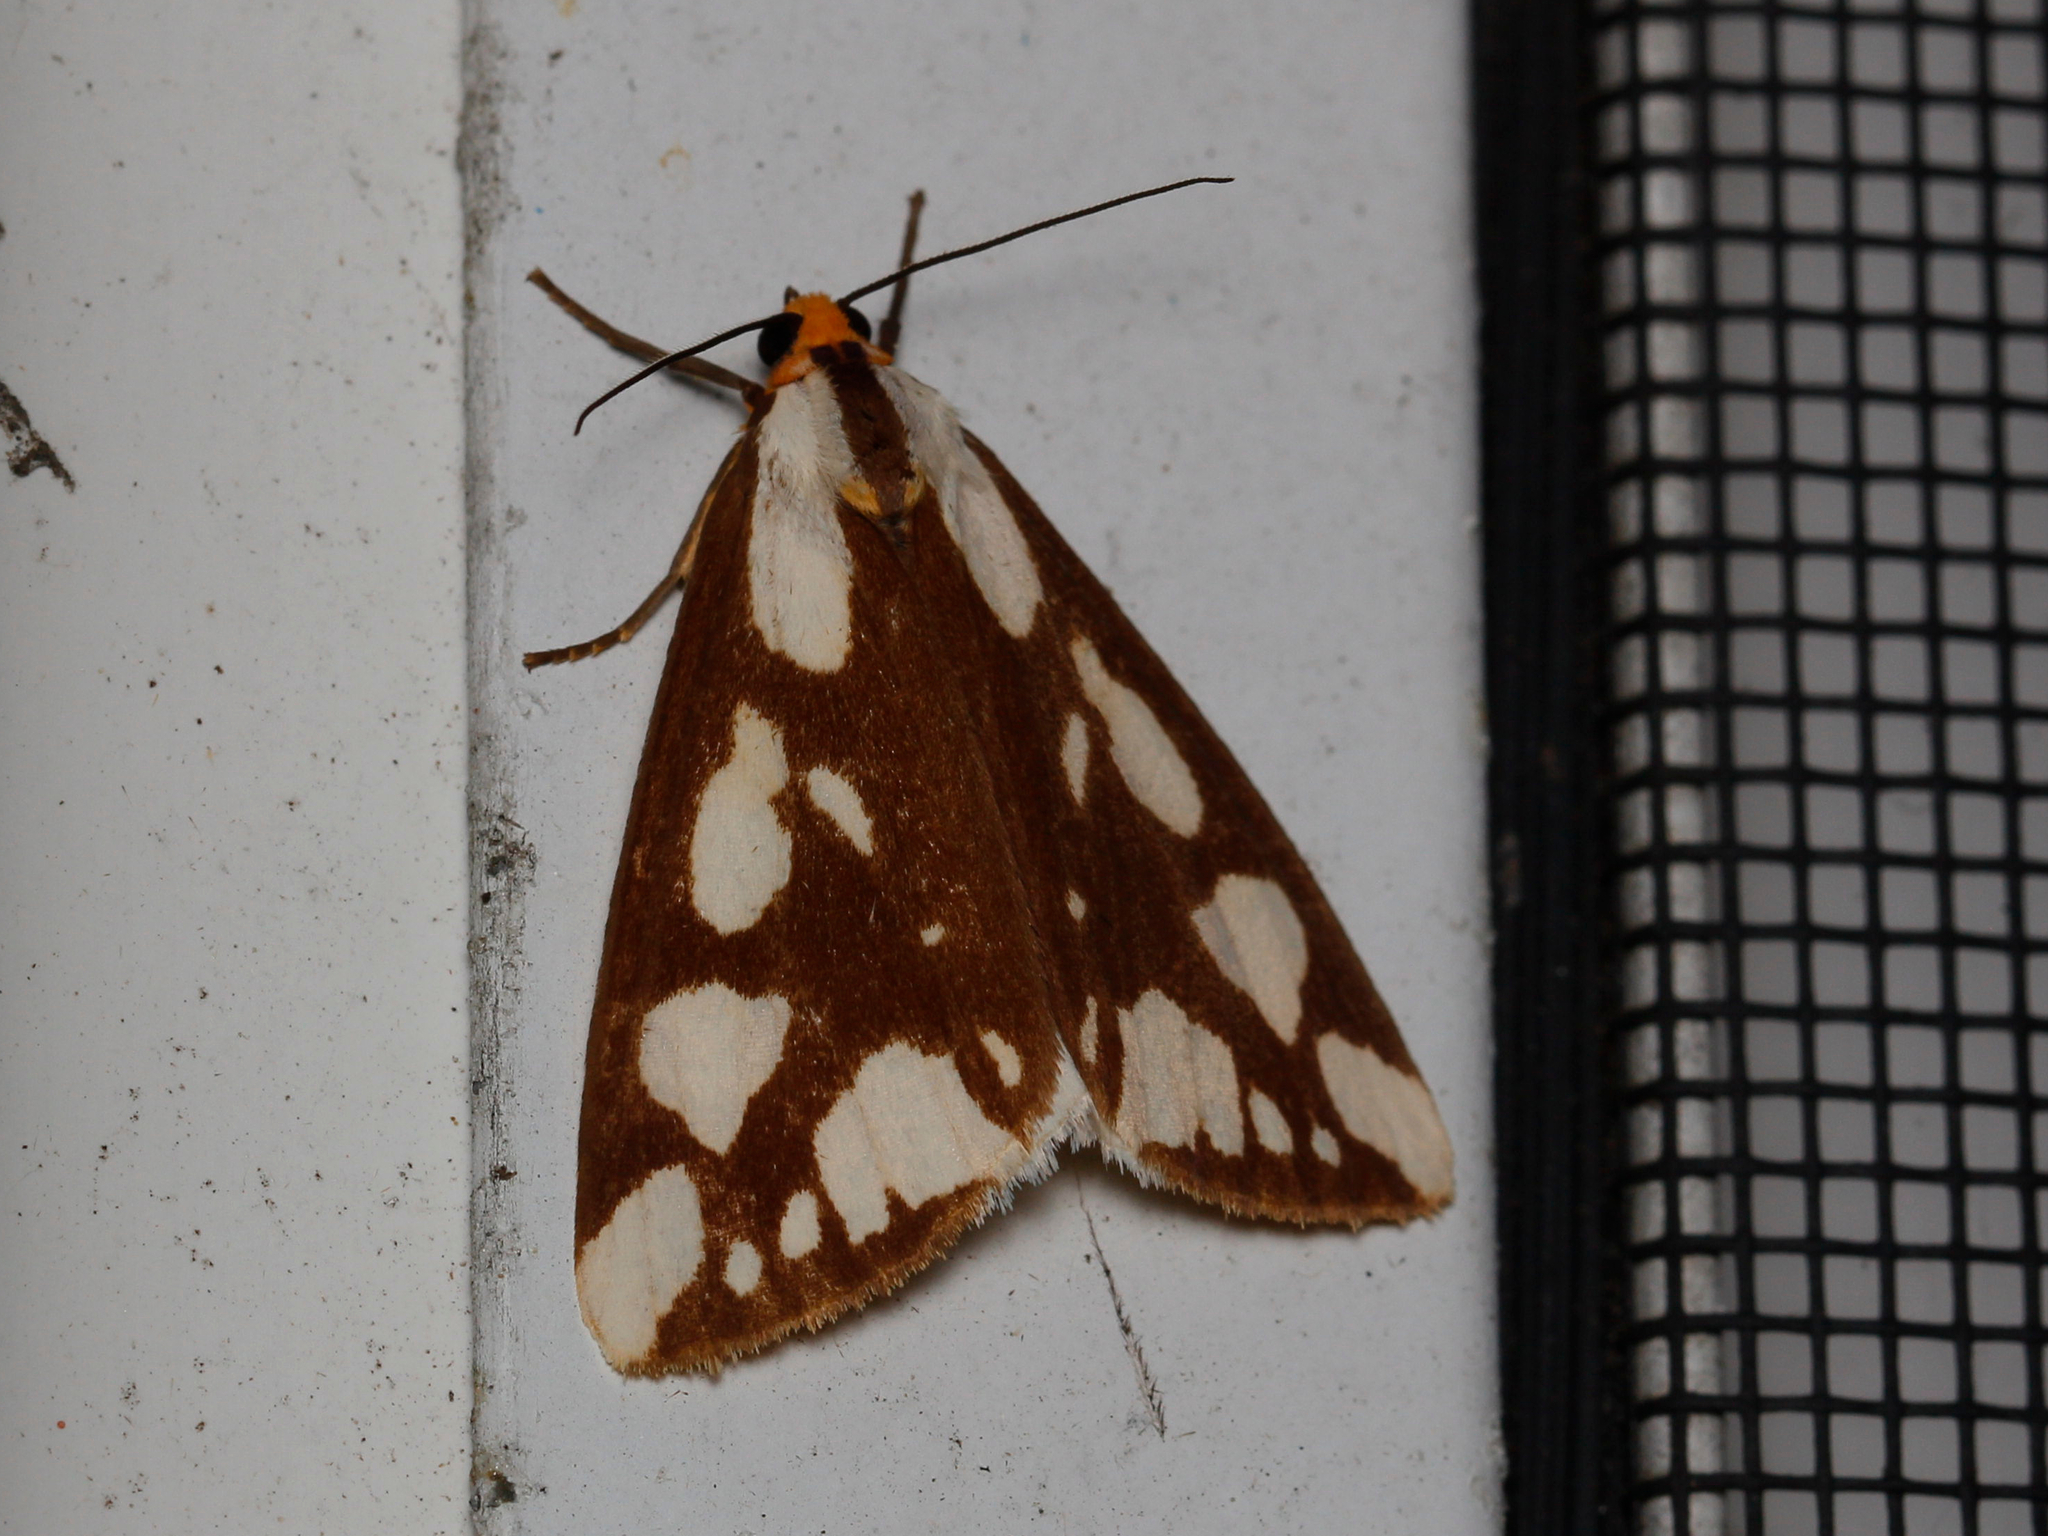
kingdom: Animalia
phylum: Arthropoda
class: Insecta
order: Lepidoptera
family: Erebidae
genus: Haploa
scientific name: Haploa confusa
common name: Confused haploa moth
